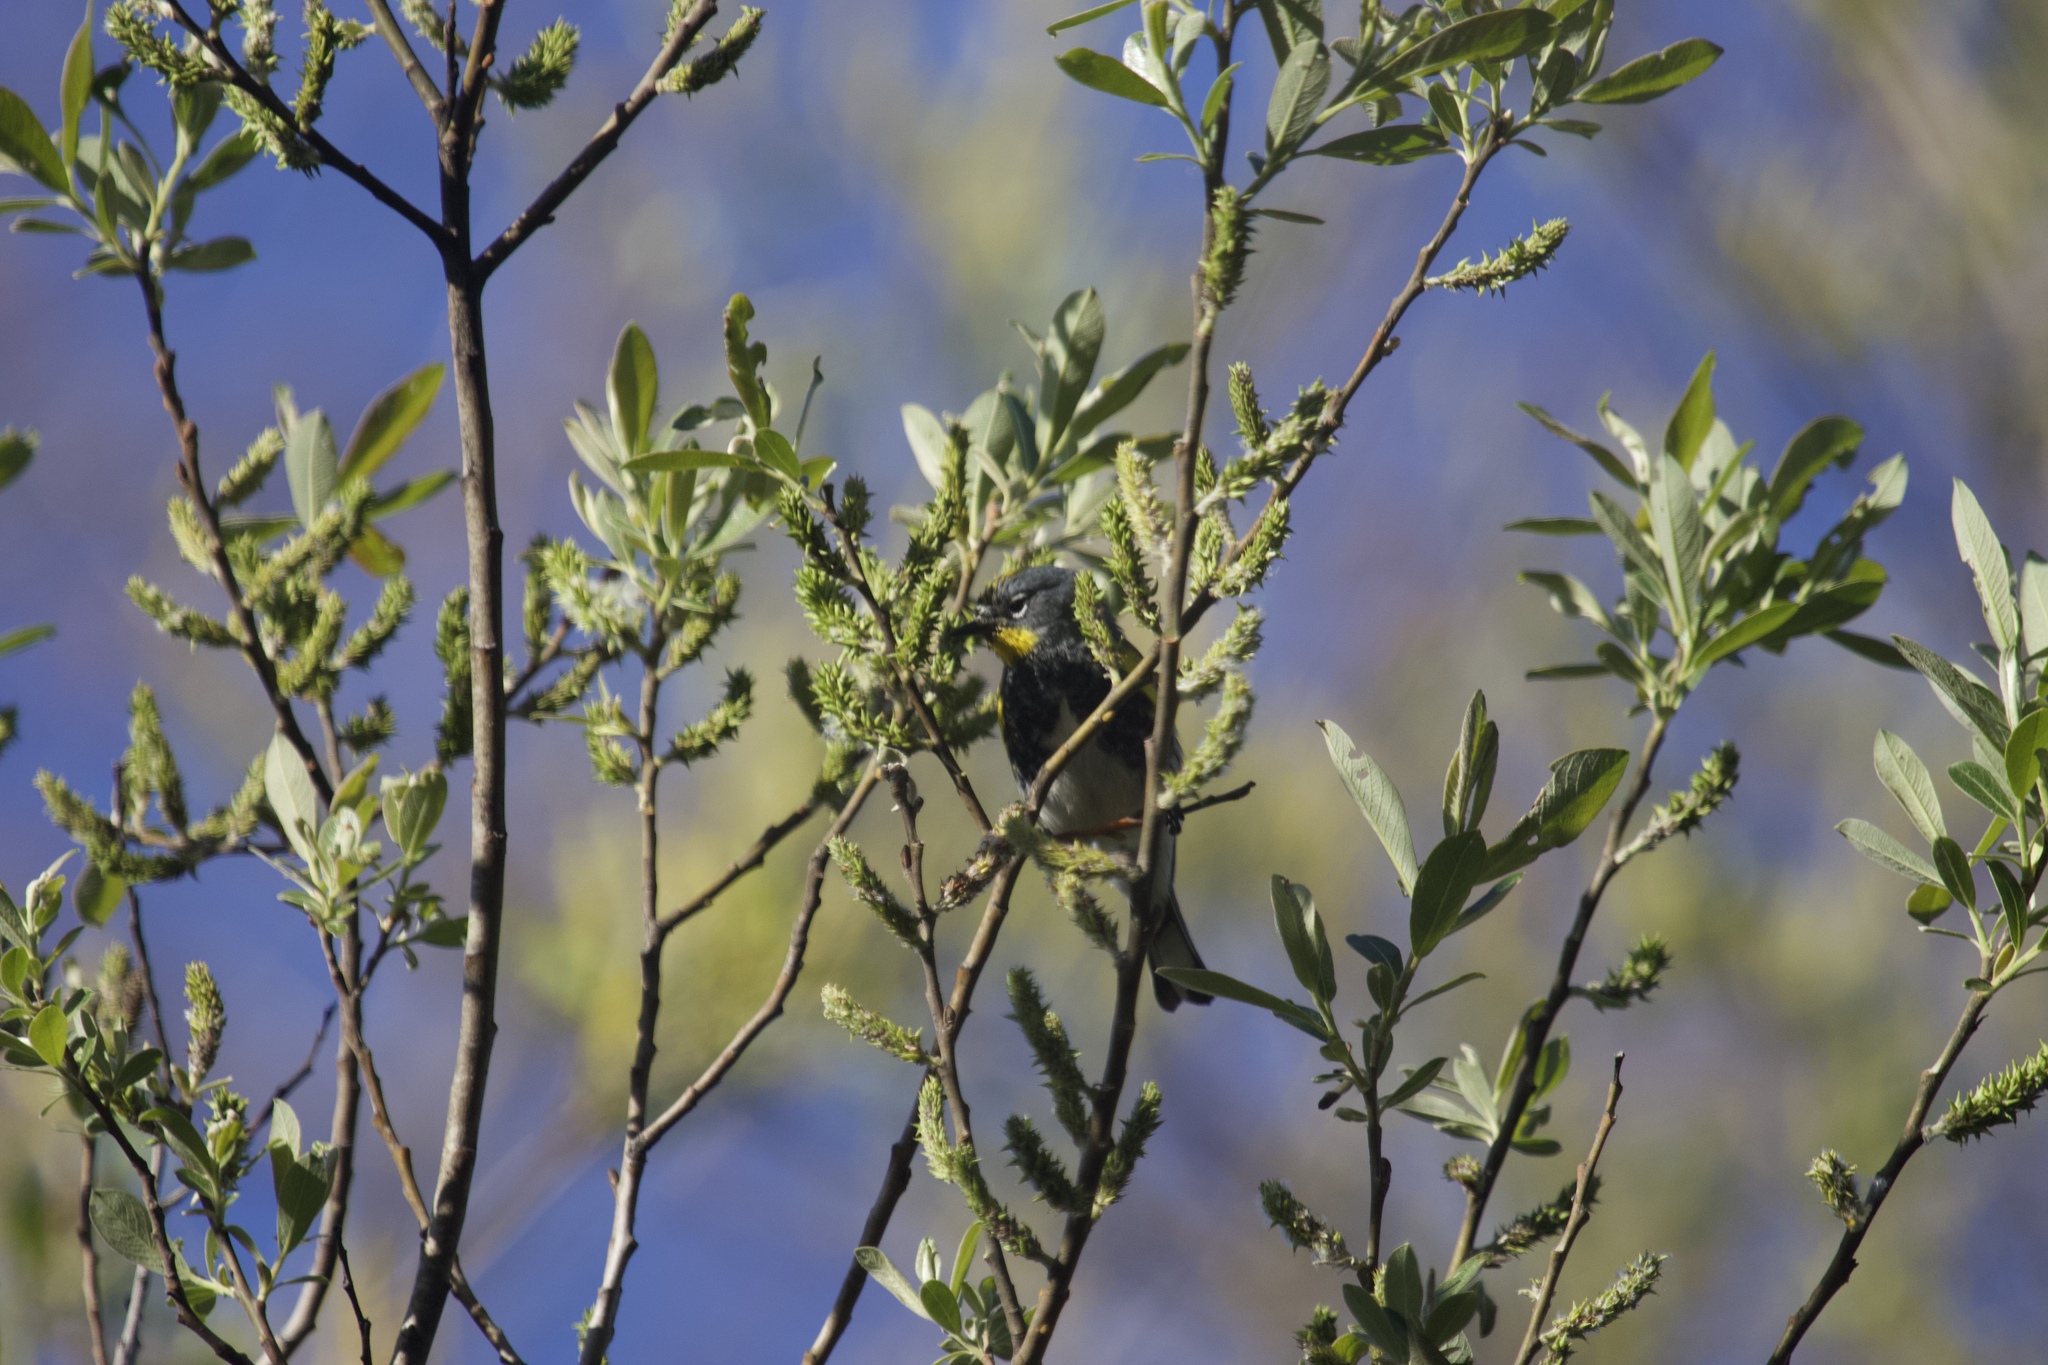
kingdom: Animalia
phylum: Chordata
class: Aves
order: Passeriformes
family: Parulidae
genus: Setophaga
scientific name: Setophaga coronata
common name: Myrtle warbler
